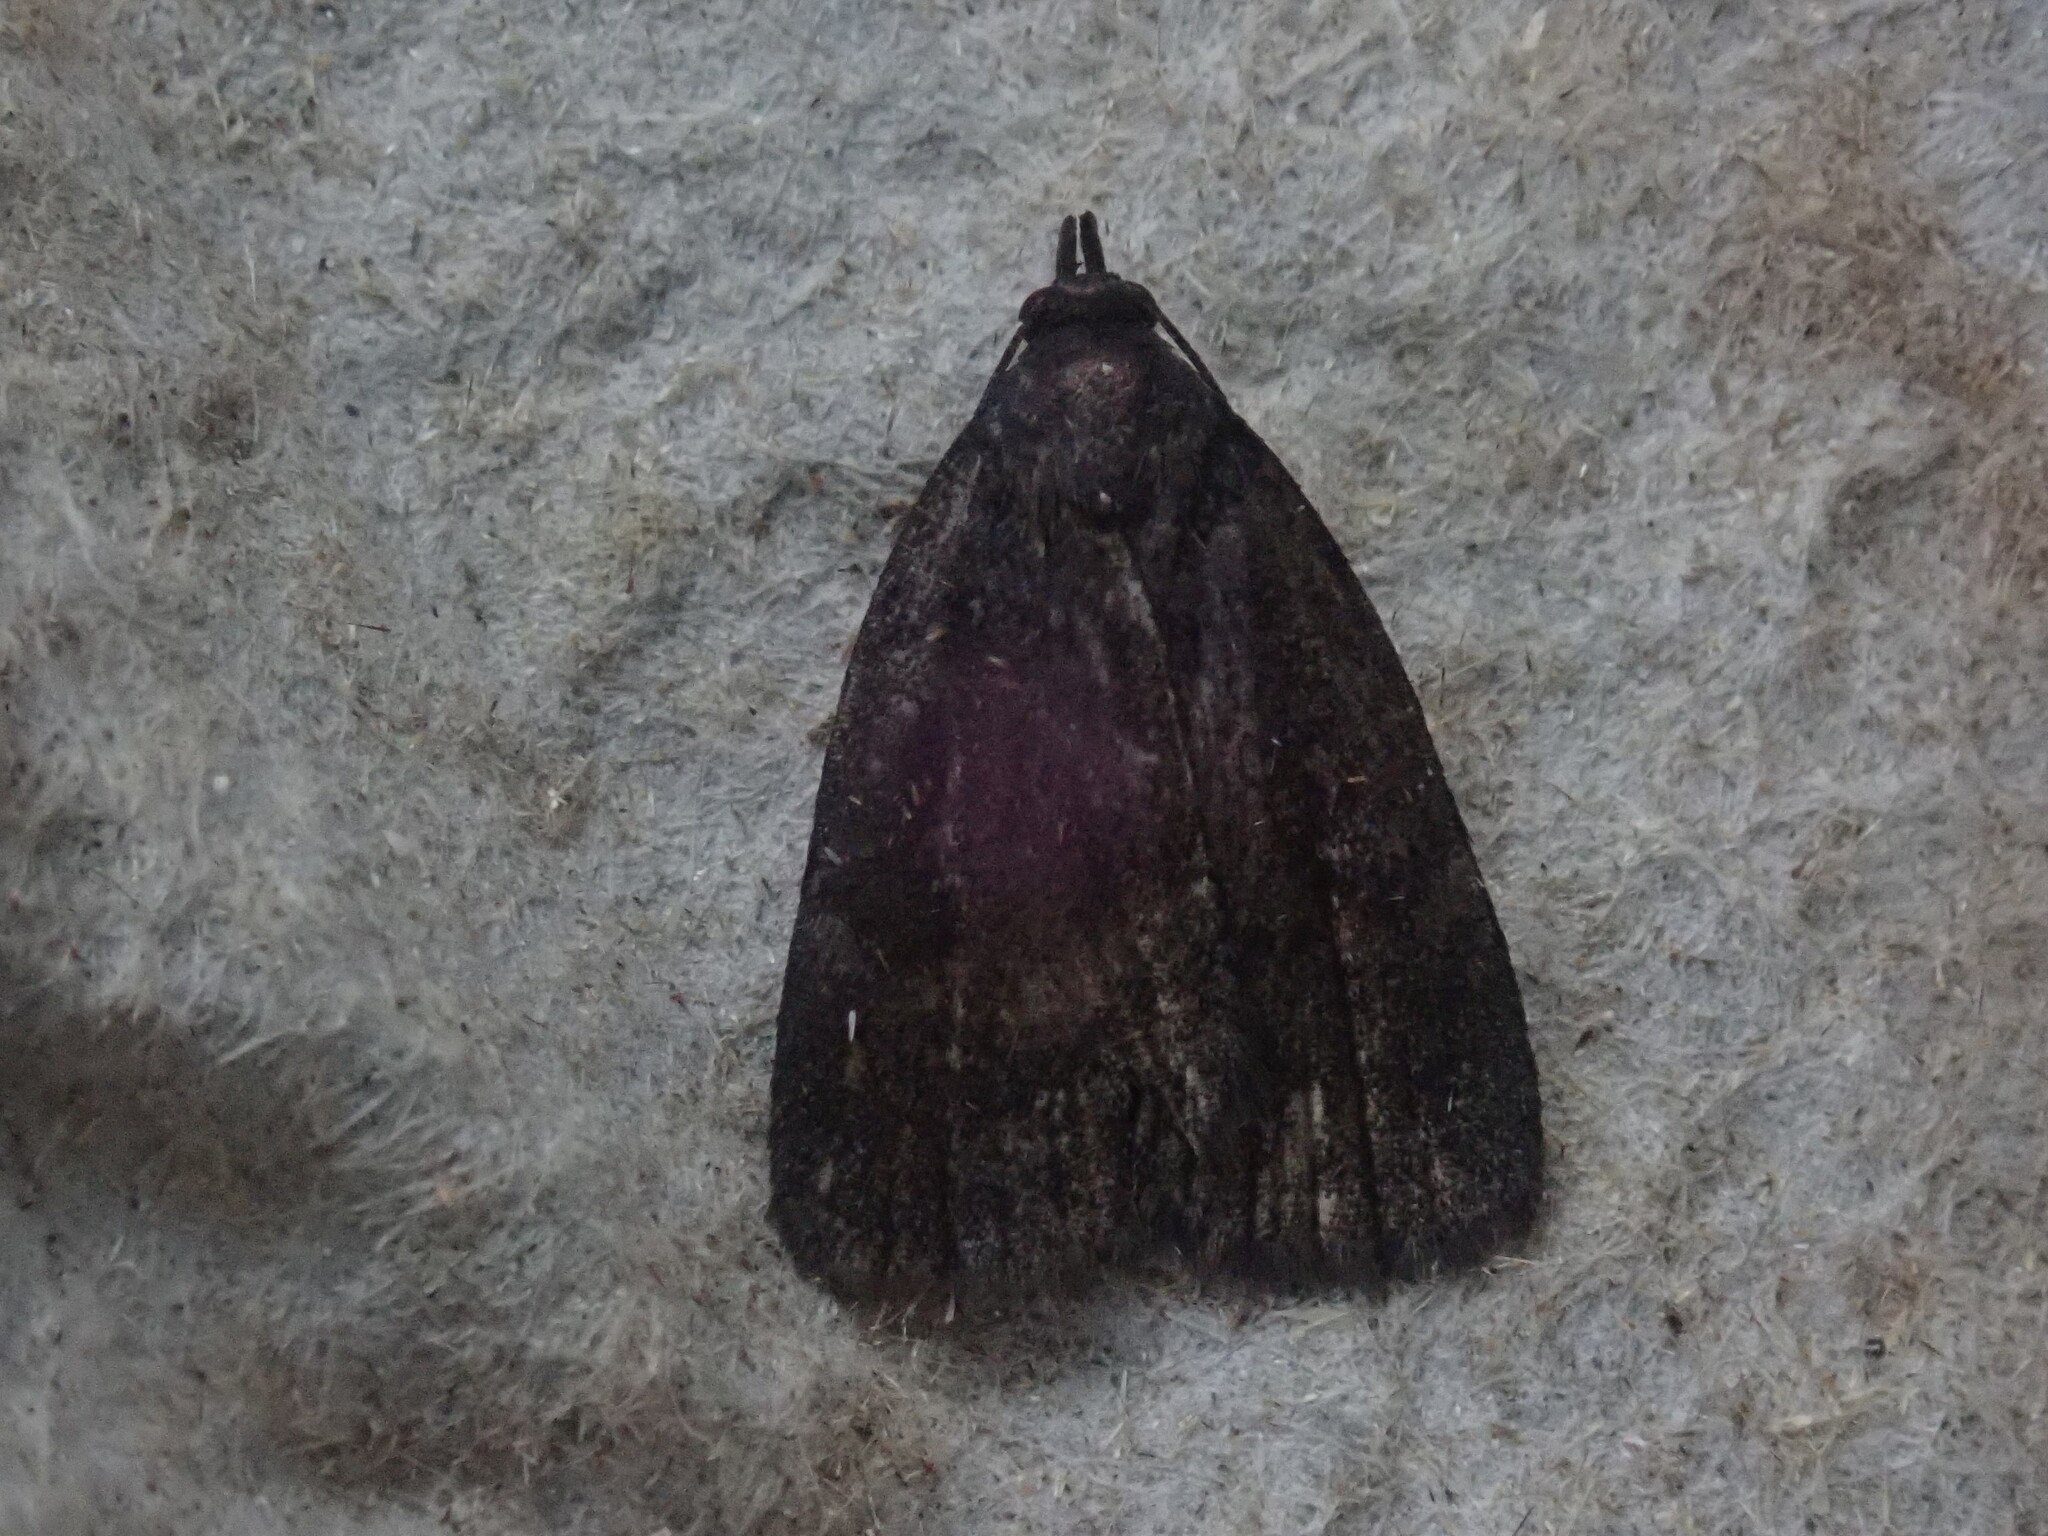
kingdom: Animalia
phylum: Arthropoda
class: Insecta
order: Lepidoptera
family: Erebidae
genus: Idia
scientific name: Idia rotundalis
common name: Rotund idia moth
